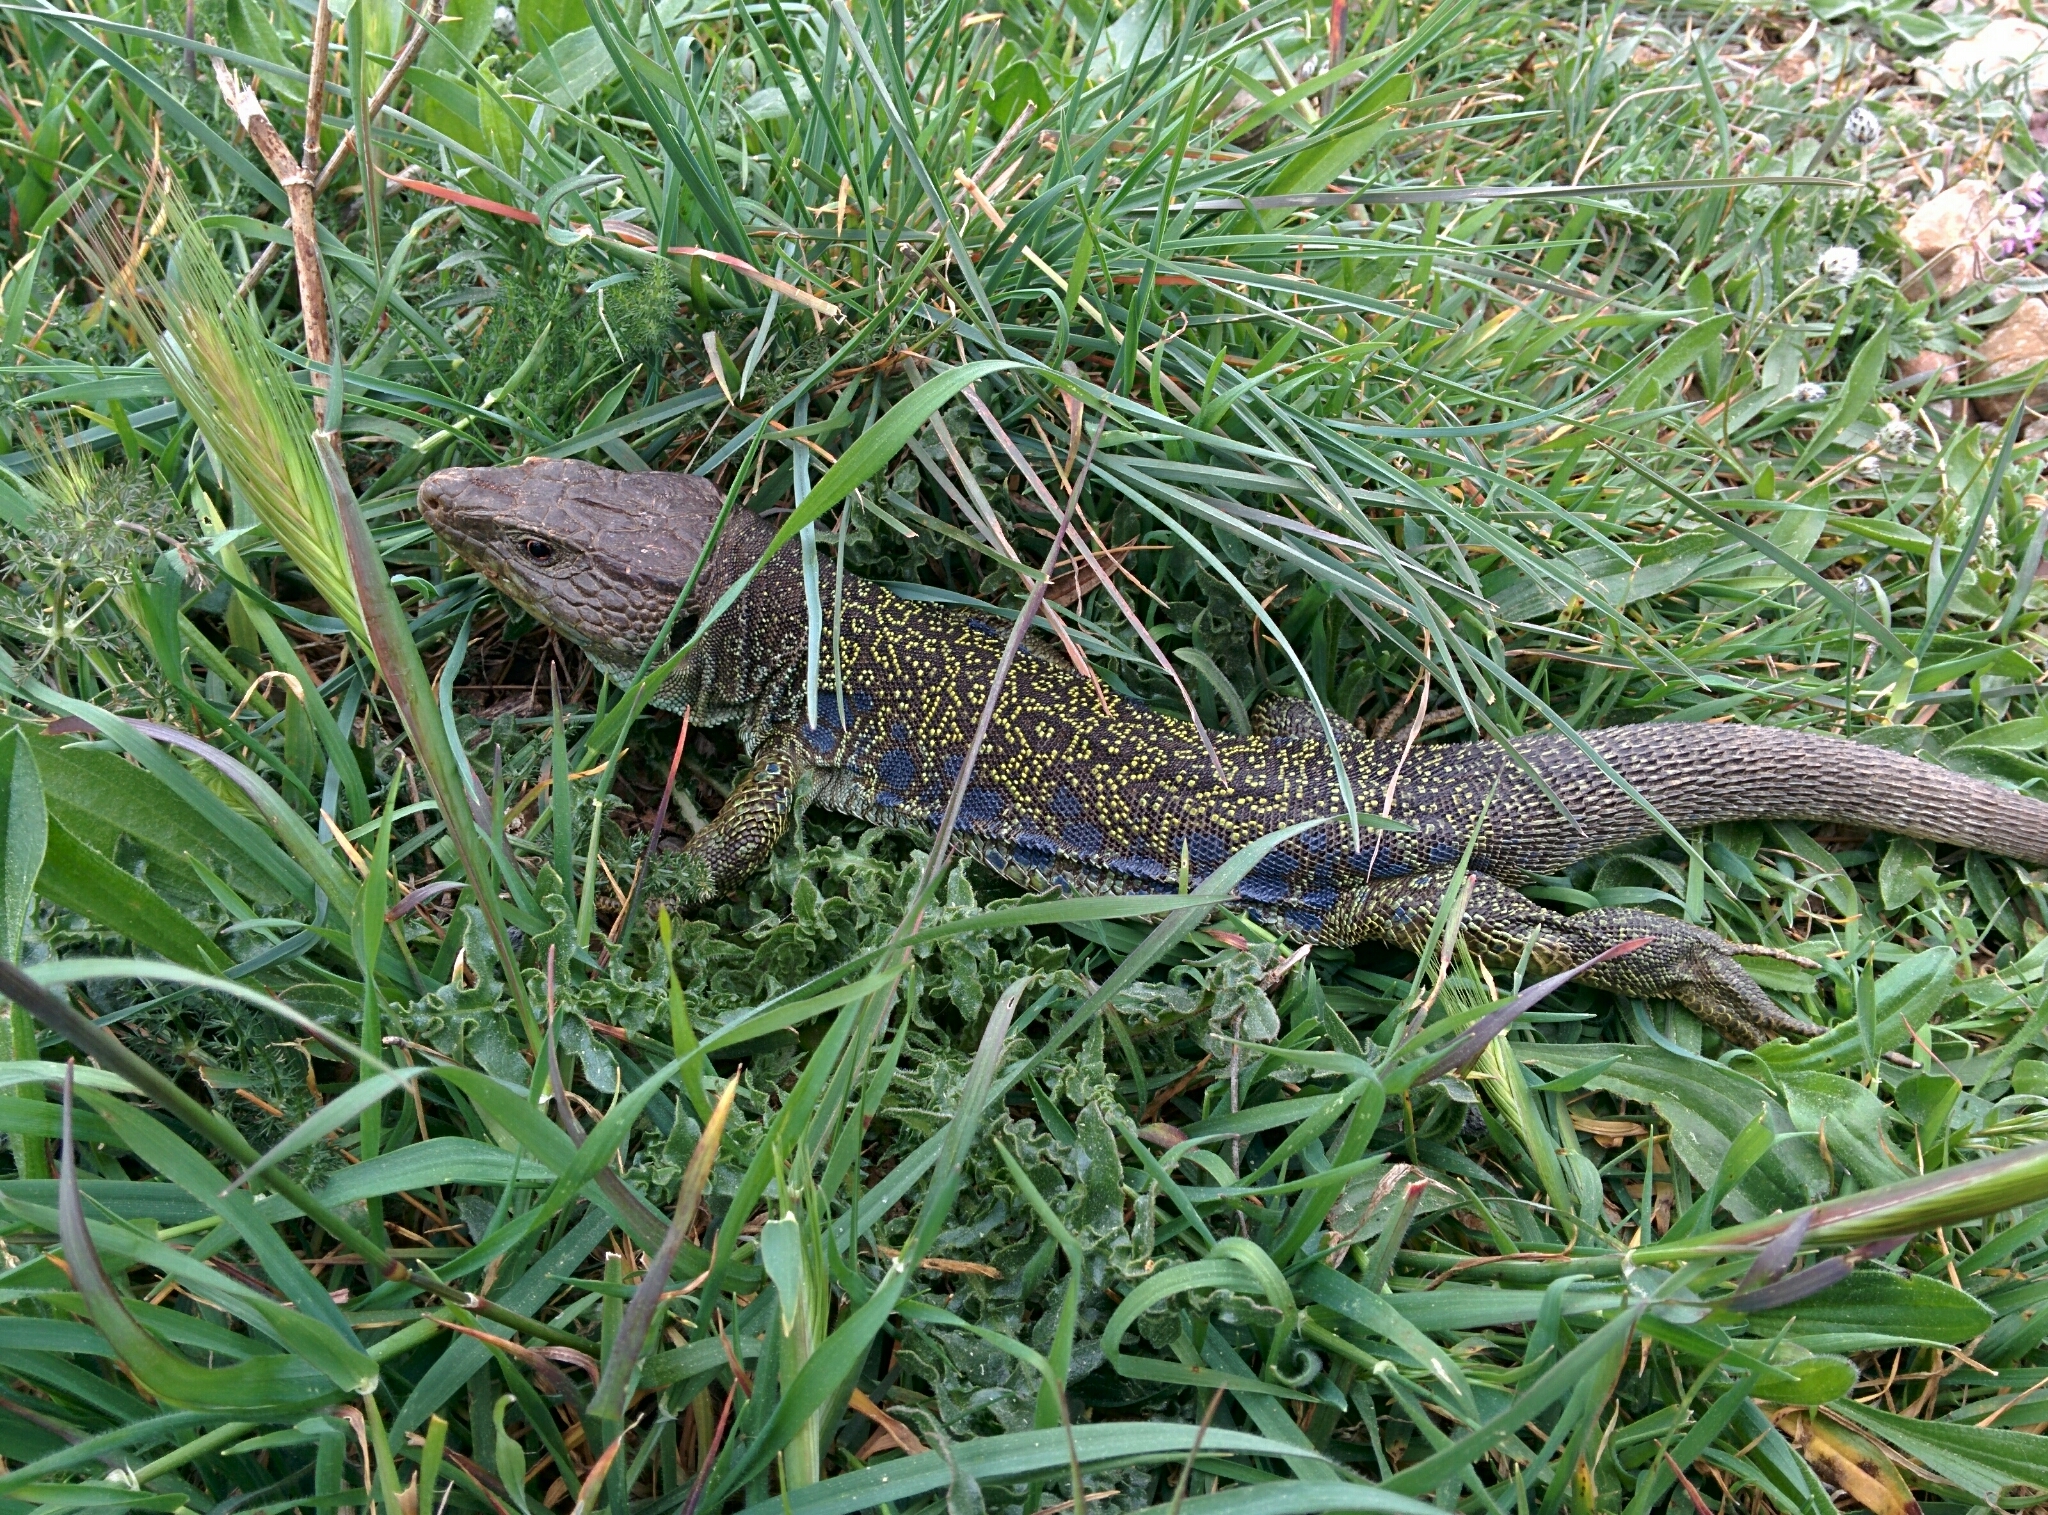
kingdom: Animalia
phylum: Chordata
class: Squamata
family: Lacertidae
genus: Timon
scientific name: Timon lepidus
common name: Ocellated lizard
